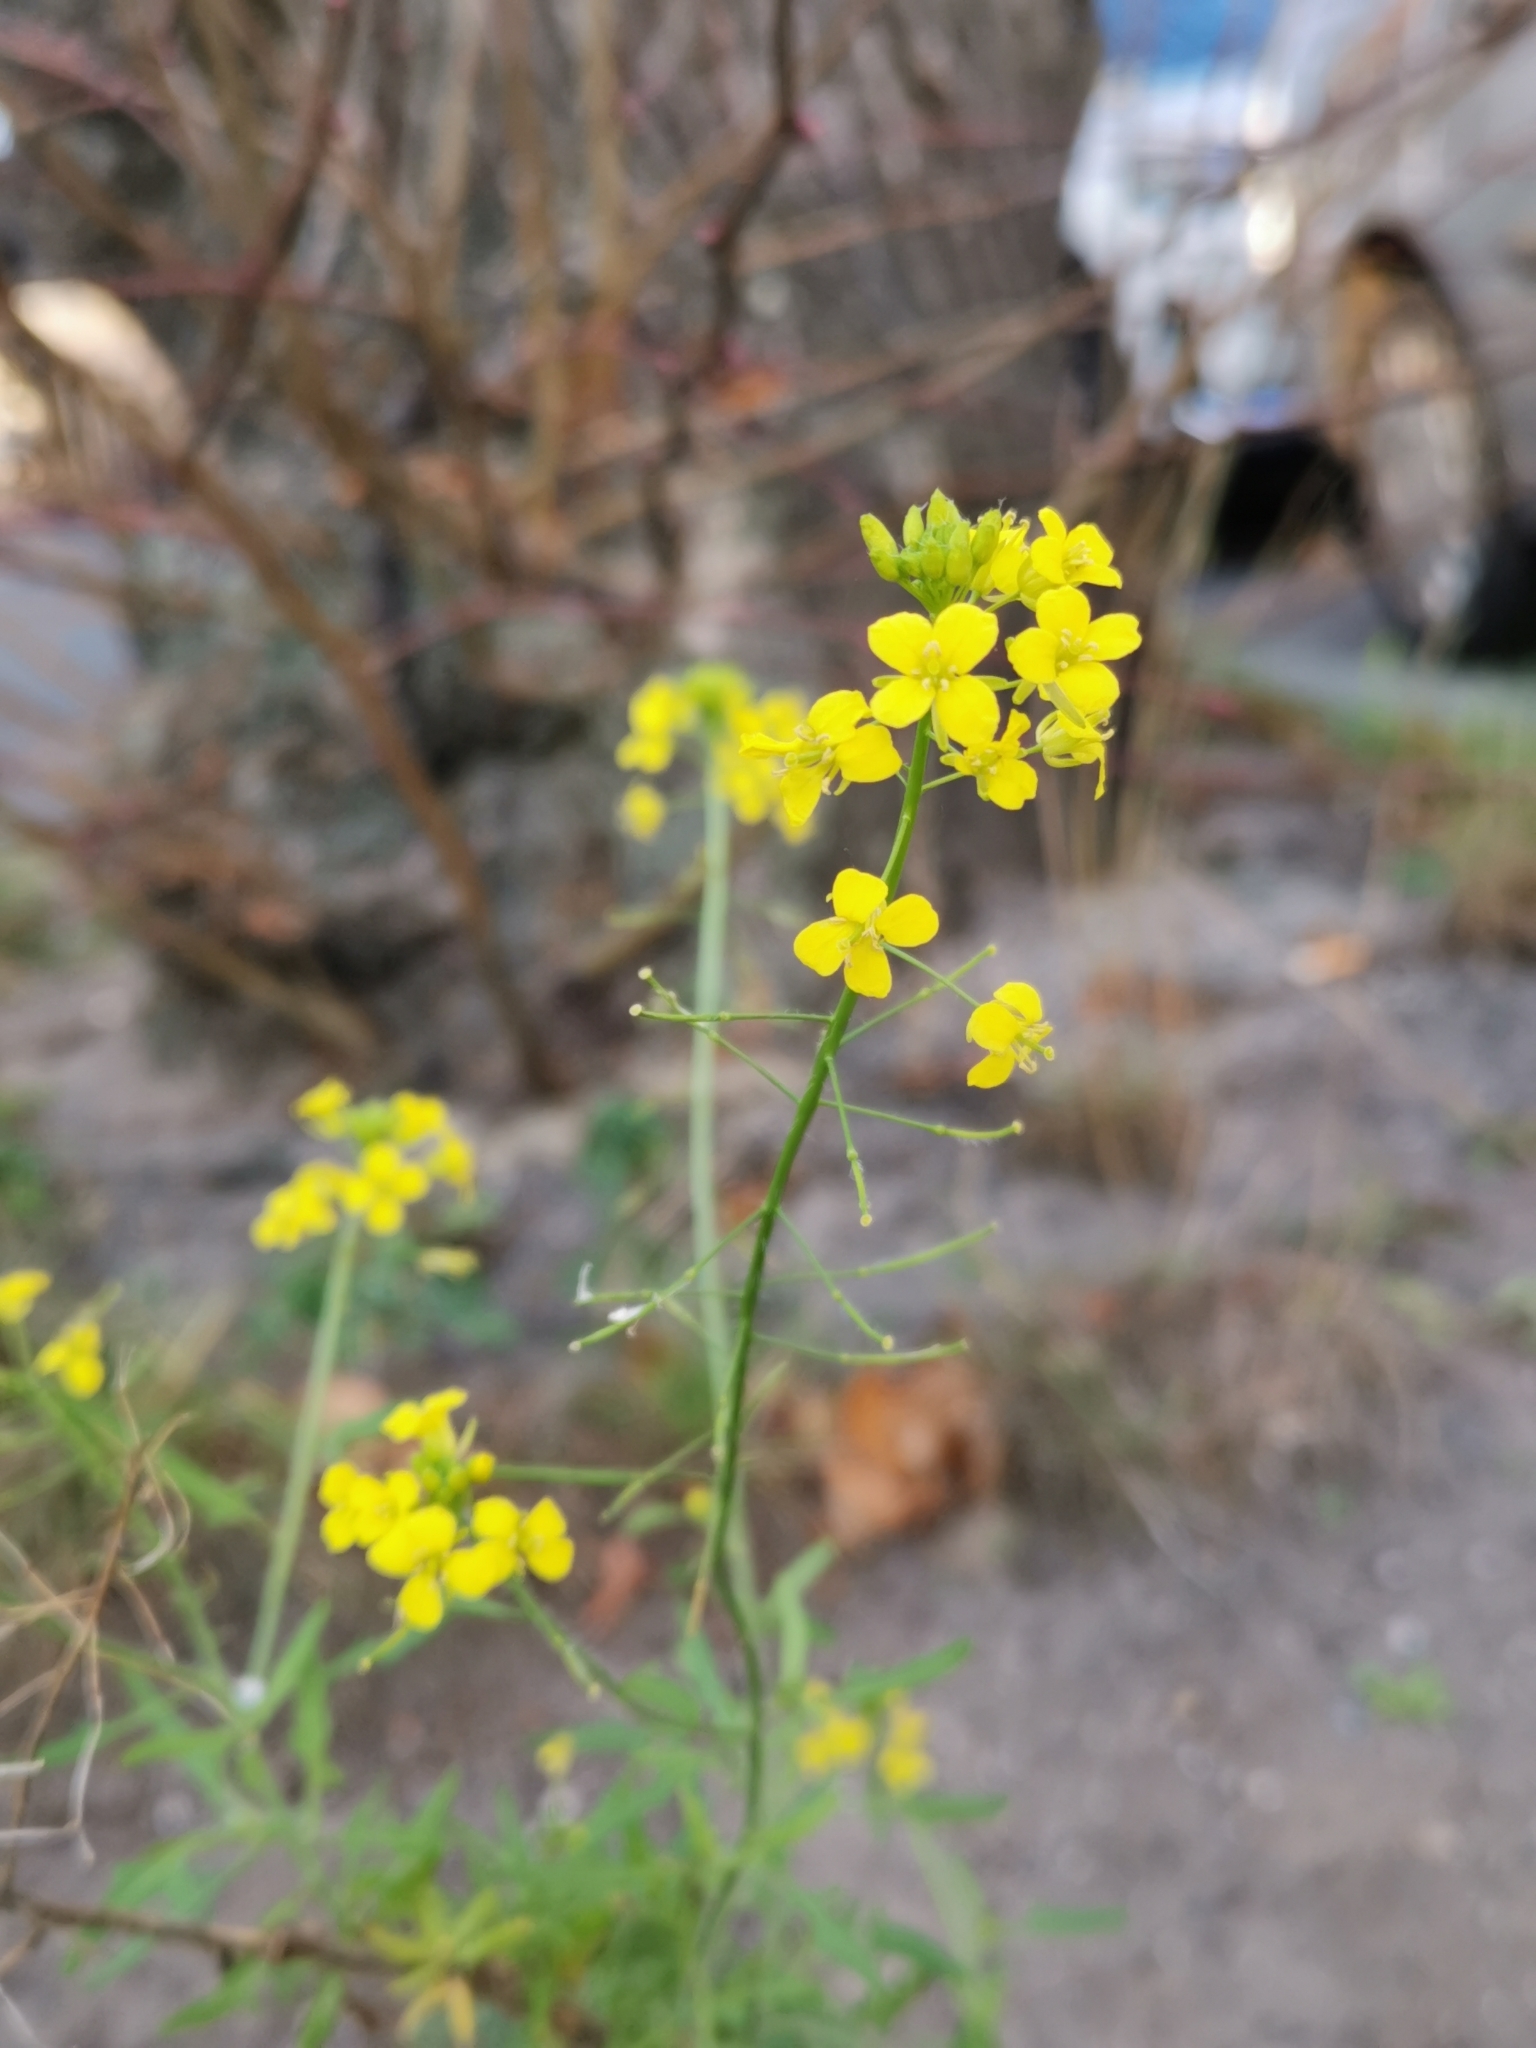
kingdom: Plantae
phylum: Tracheophyta
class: Magnoliopsida
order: Brassicales
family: Brassicaceae
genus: Sisymbrium
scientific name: Sisymbrium loeselii
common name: False london-rocket
